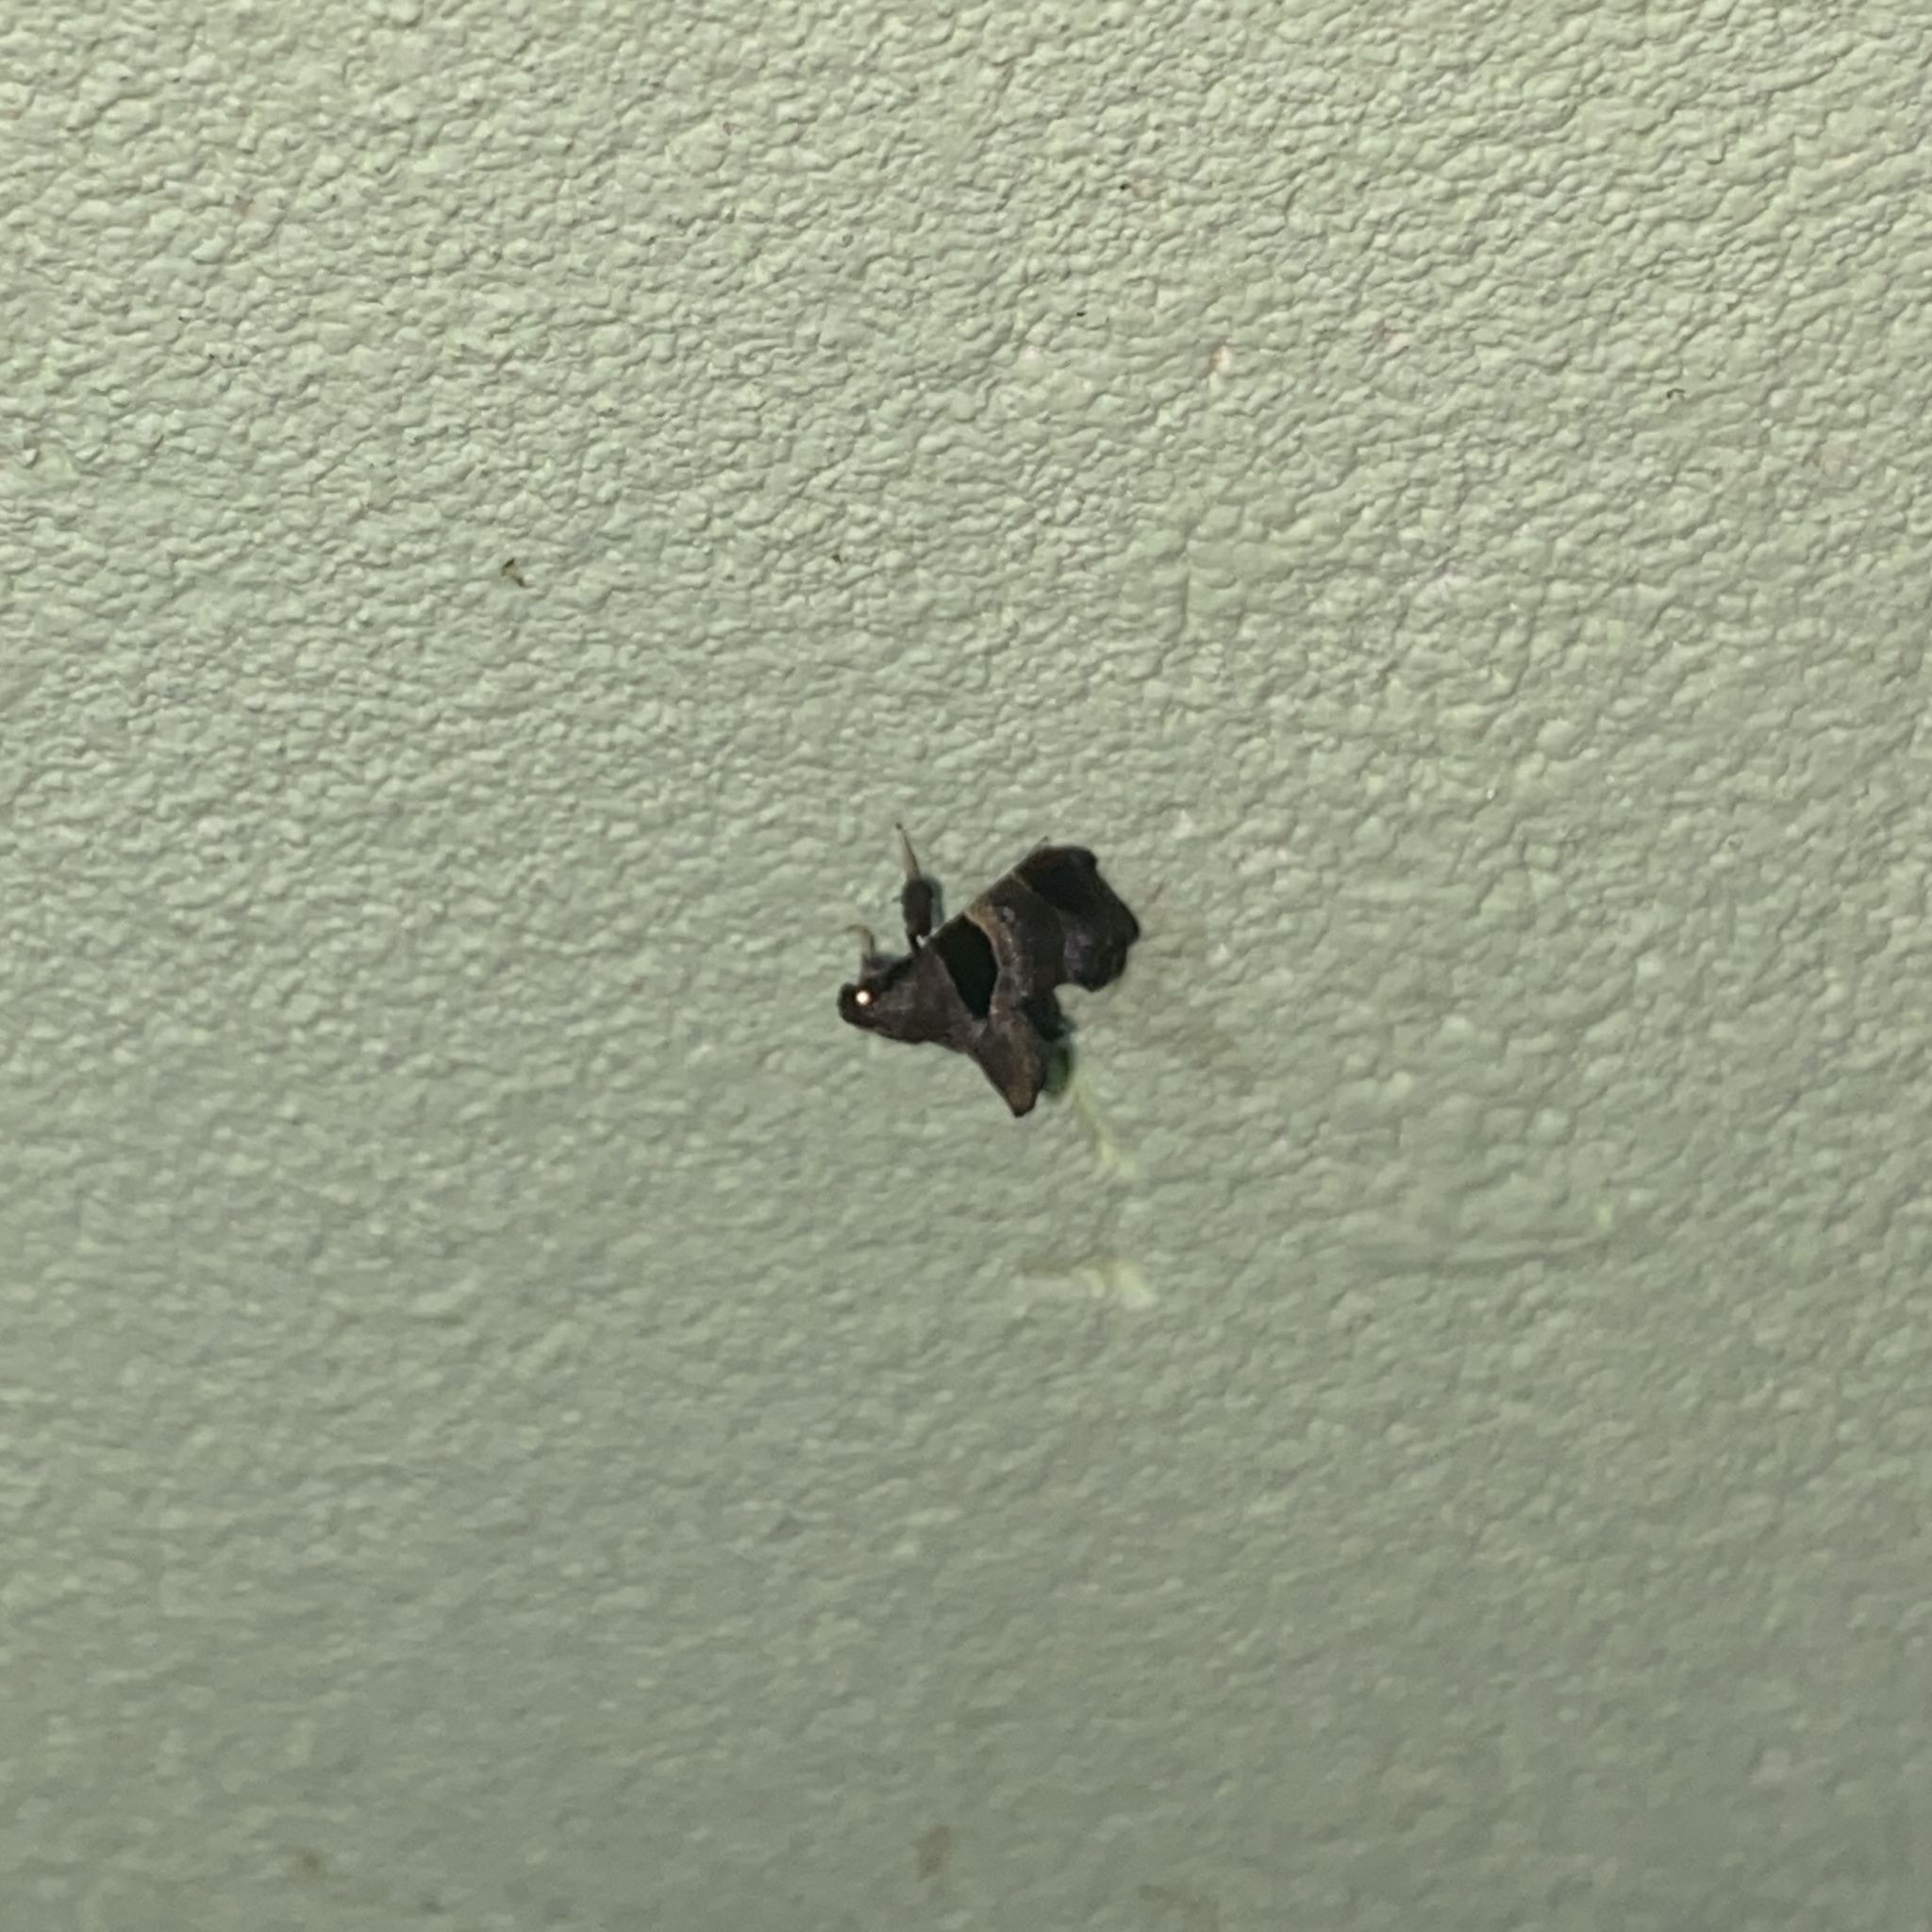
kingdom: Animalia
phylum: Arthropoda
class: Insecta
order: Lepidoptera
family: Pyralidae
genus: Tosale
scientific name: Tosale oviplagalis
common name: Dimorphic tosale moth
